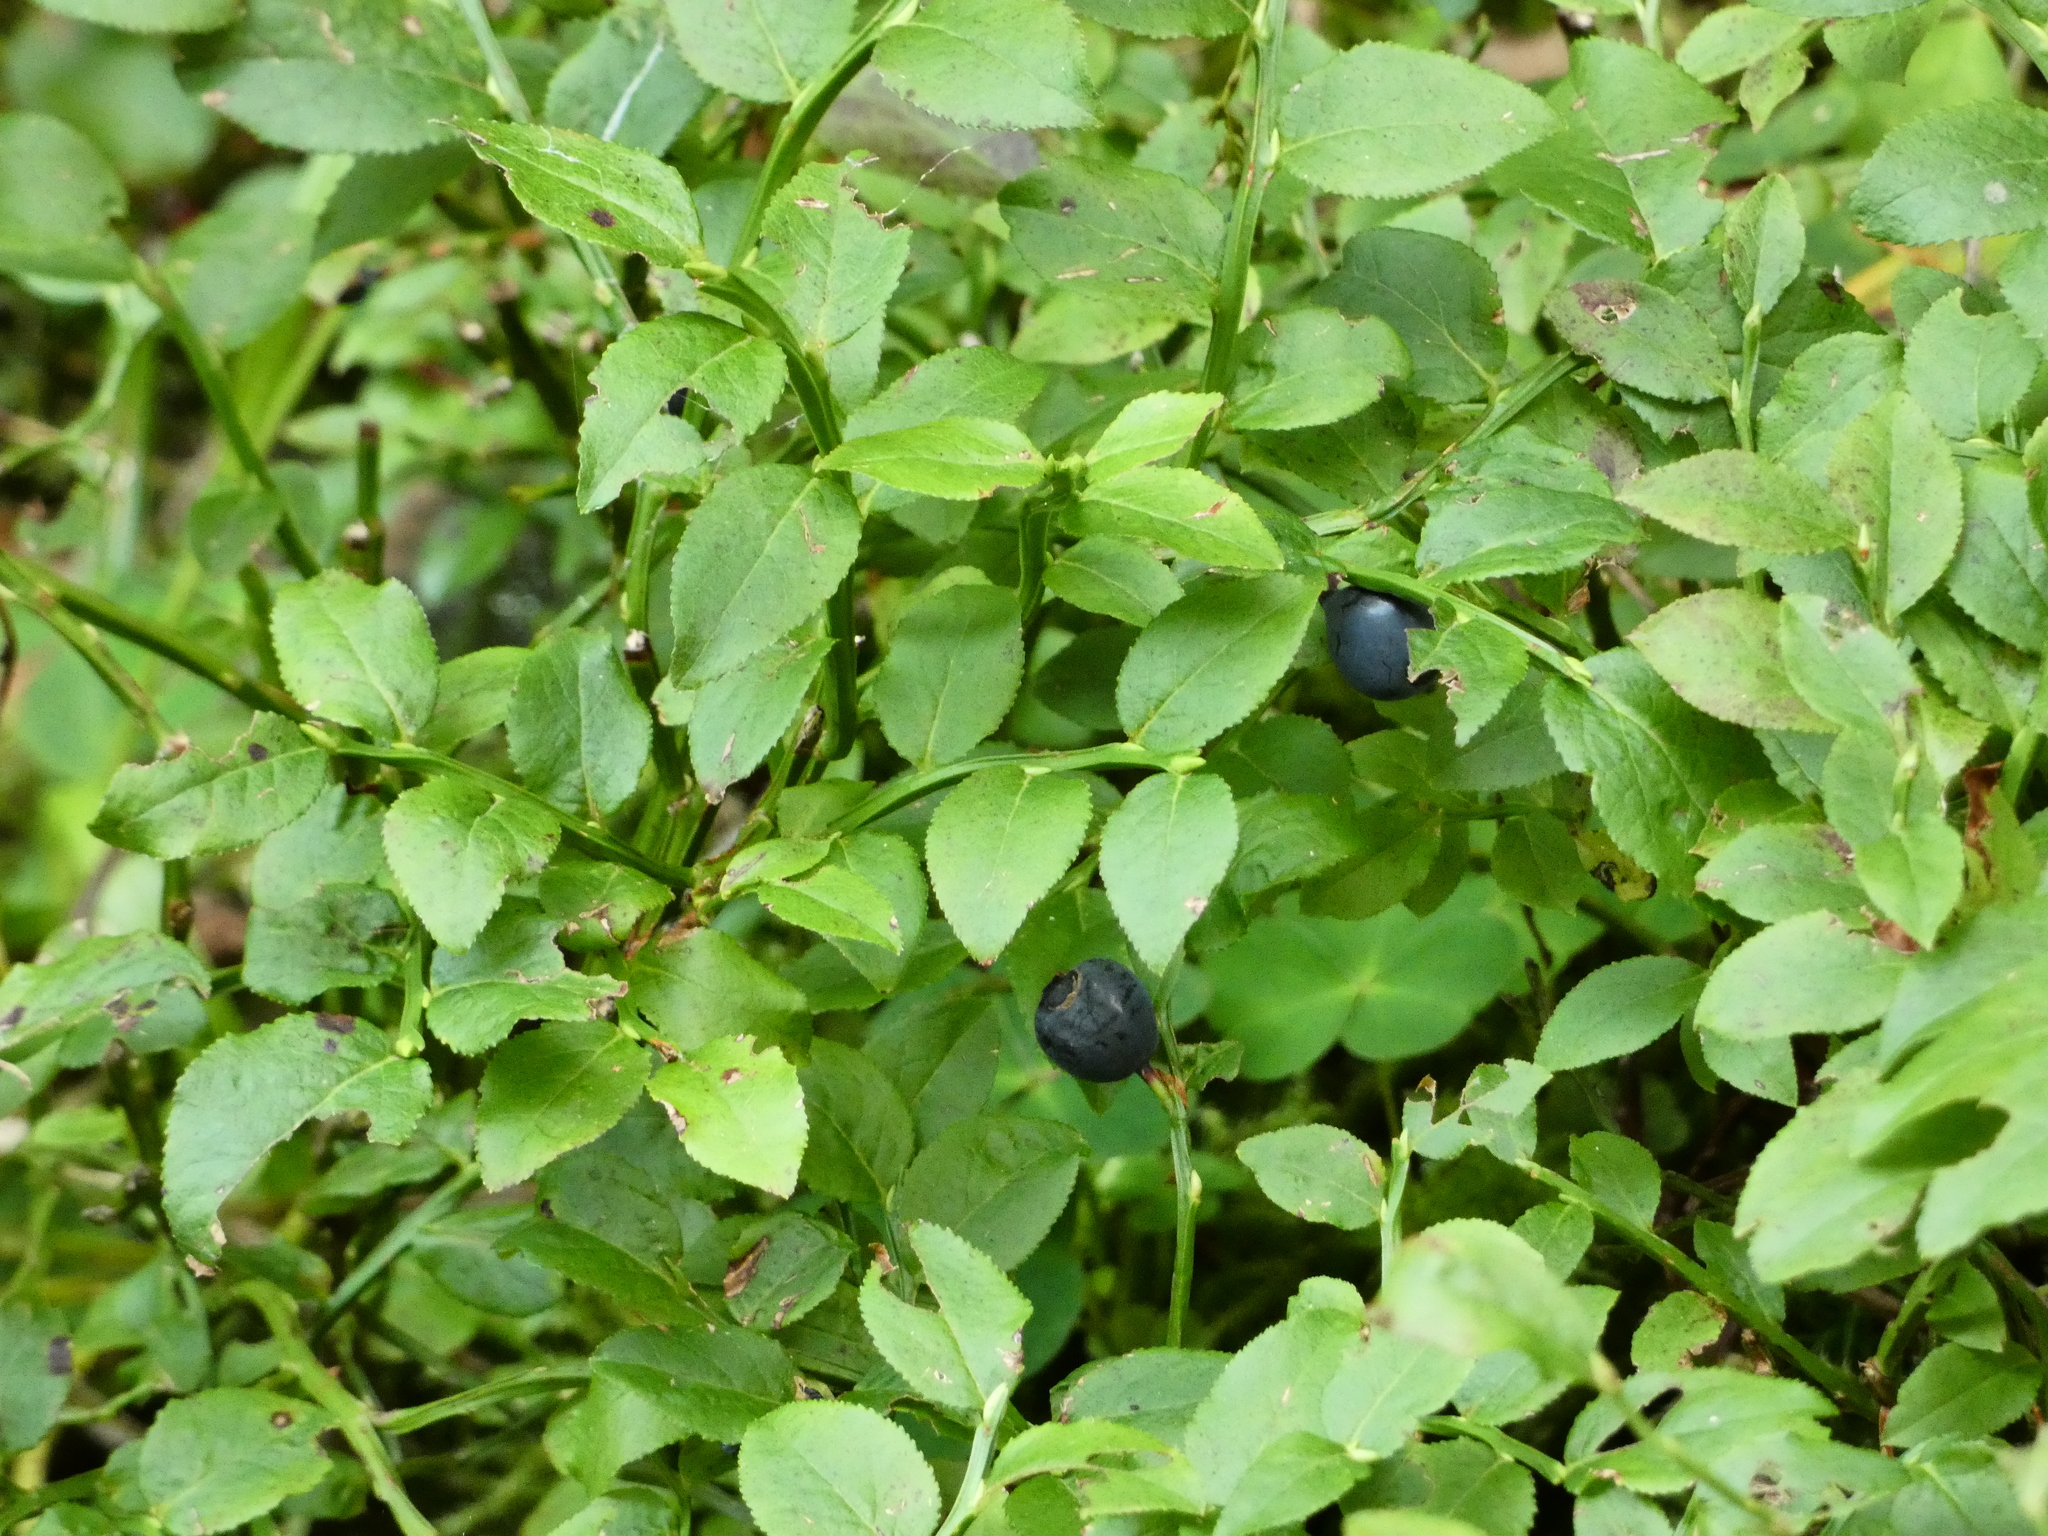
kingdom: Plantae
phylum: Tracheophyta
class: Magnoliopsida
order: Ericales
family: Ericaceae
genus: Vaccinium
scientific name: Vaccinium myrtillus
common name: Bilberry
